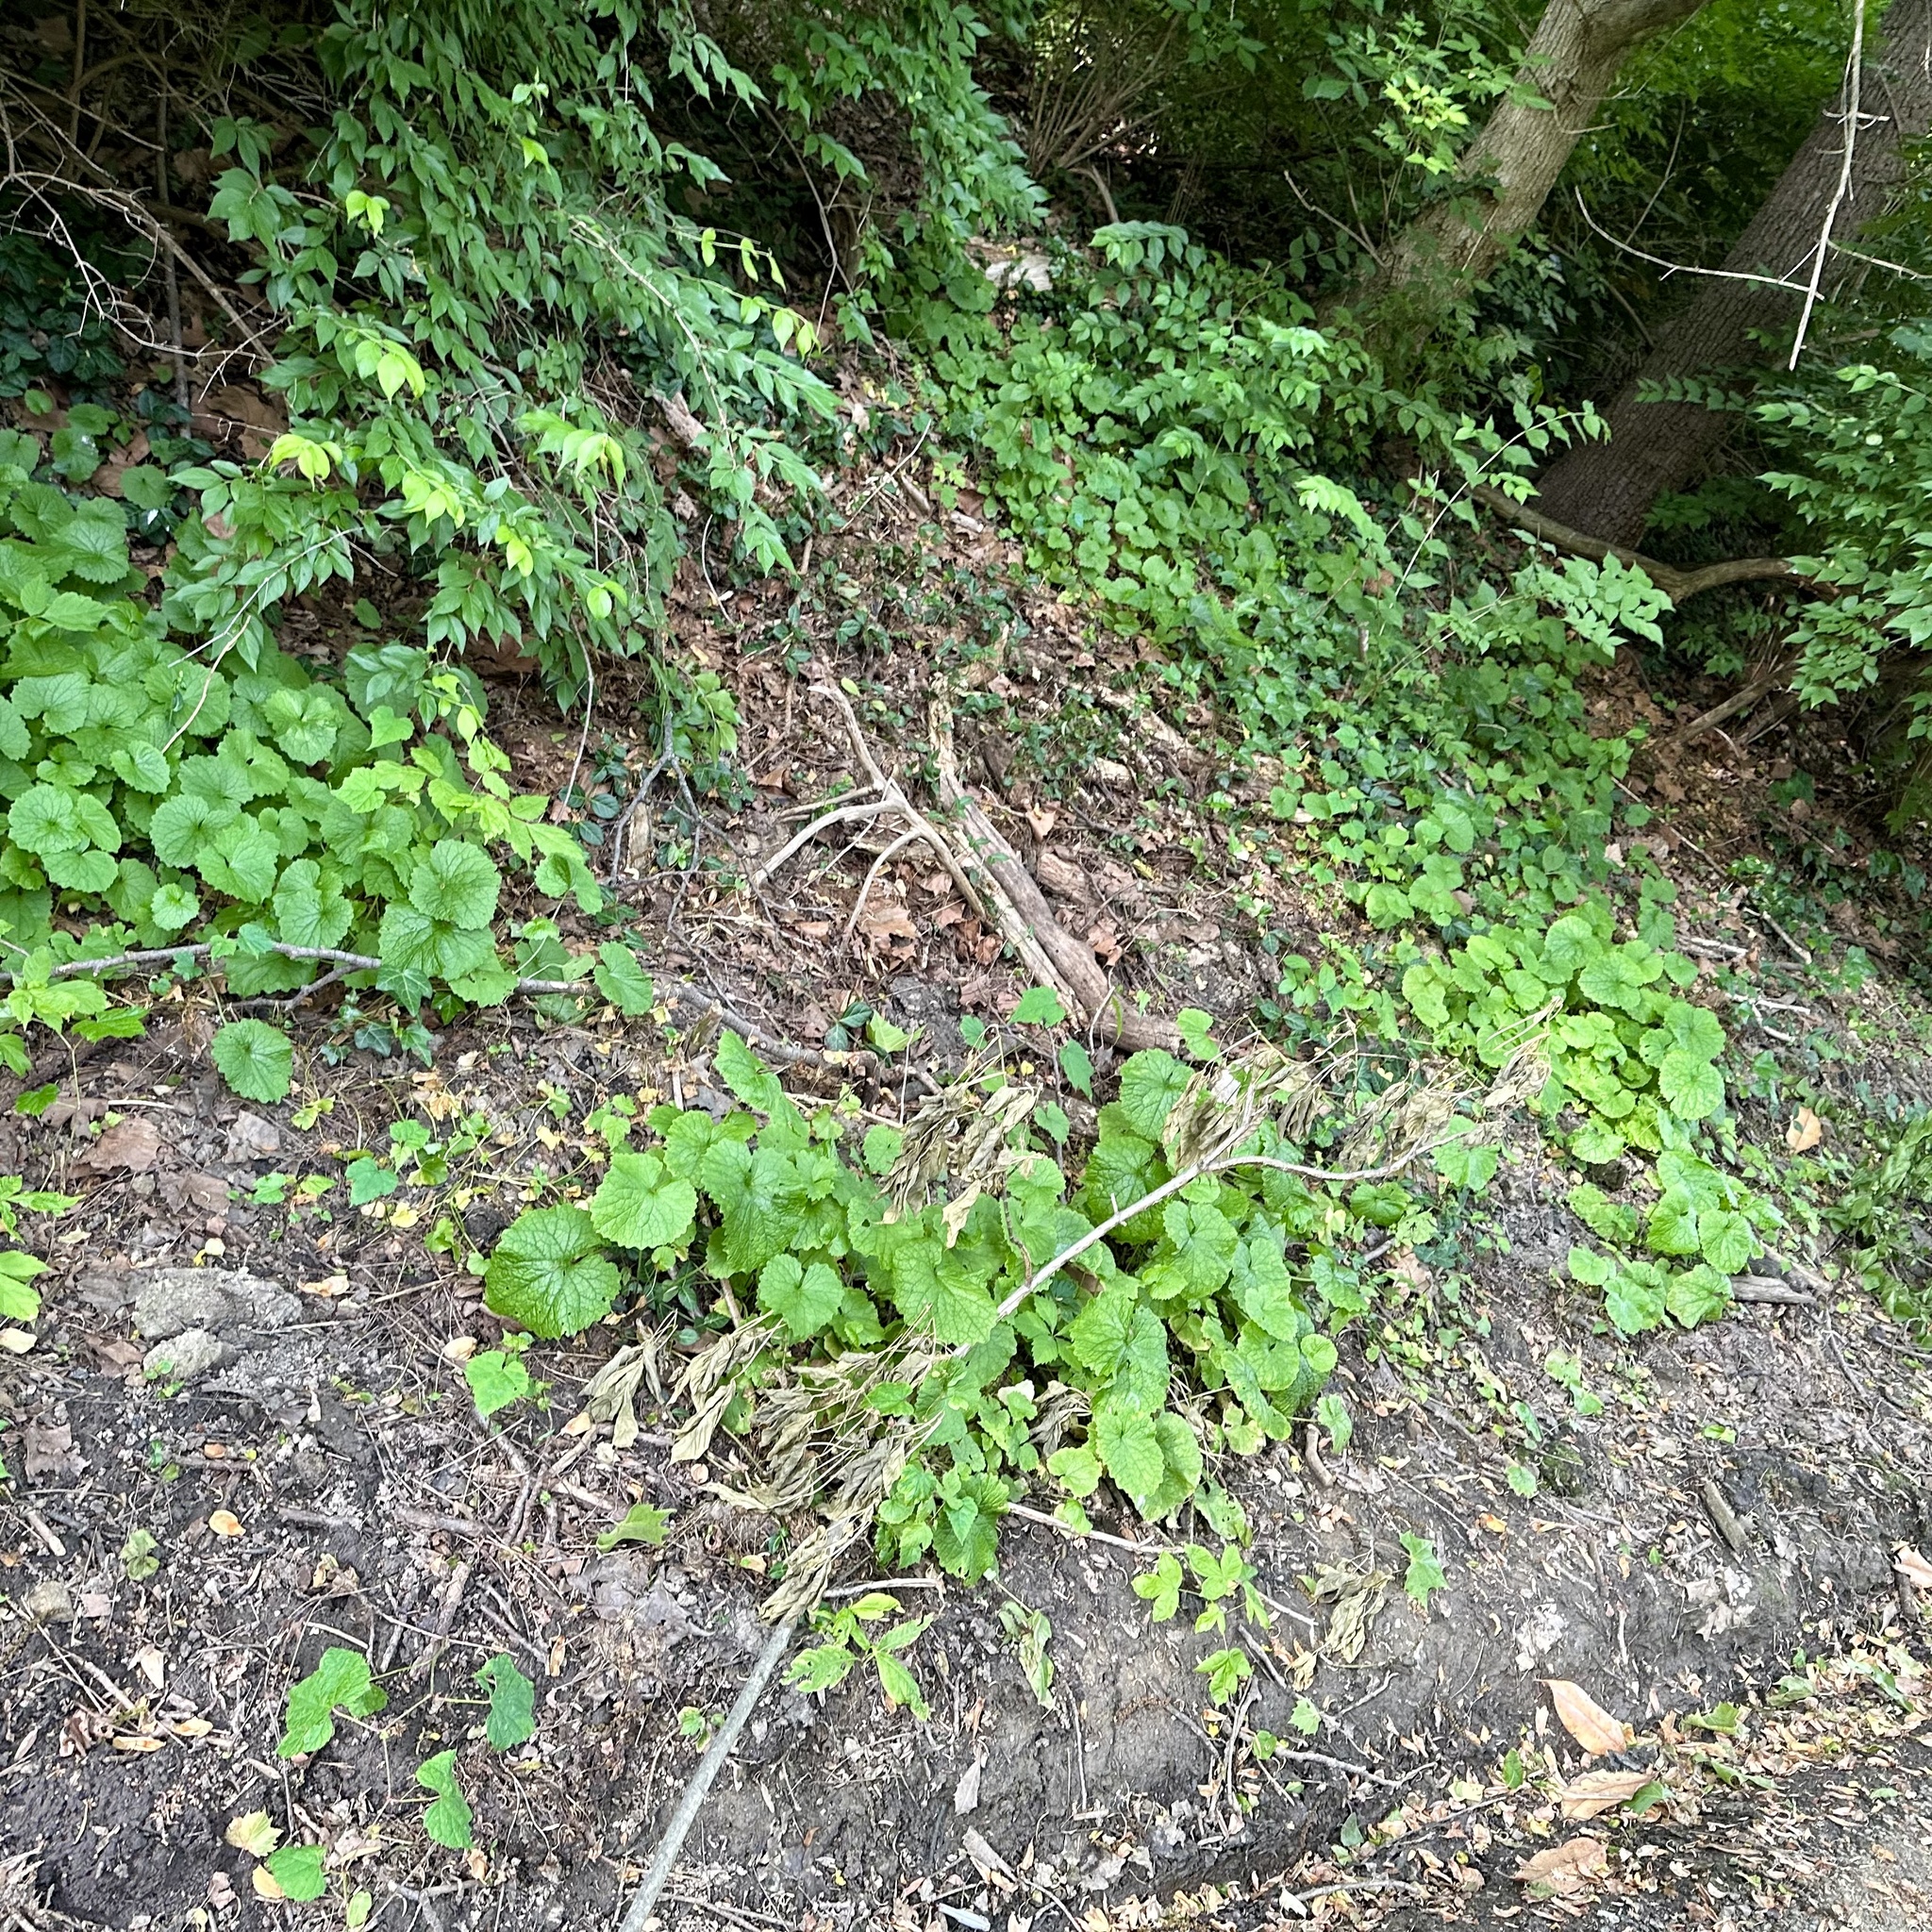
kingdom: Plantae
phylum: Tracheophyta
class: Magnoliopsida
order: Brassicales
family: Brassicaceae
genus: Alliaria
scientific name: Alliaria petiolata
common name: Garlic mustard
